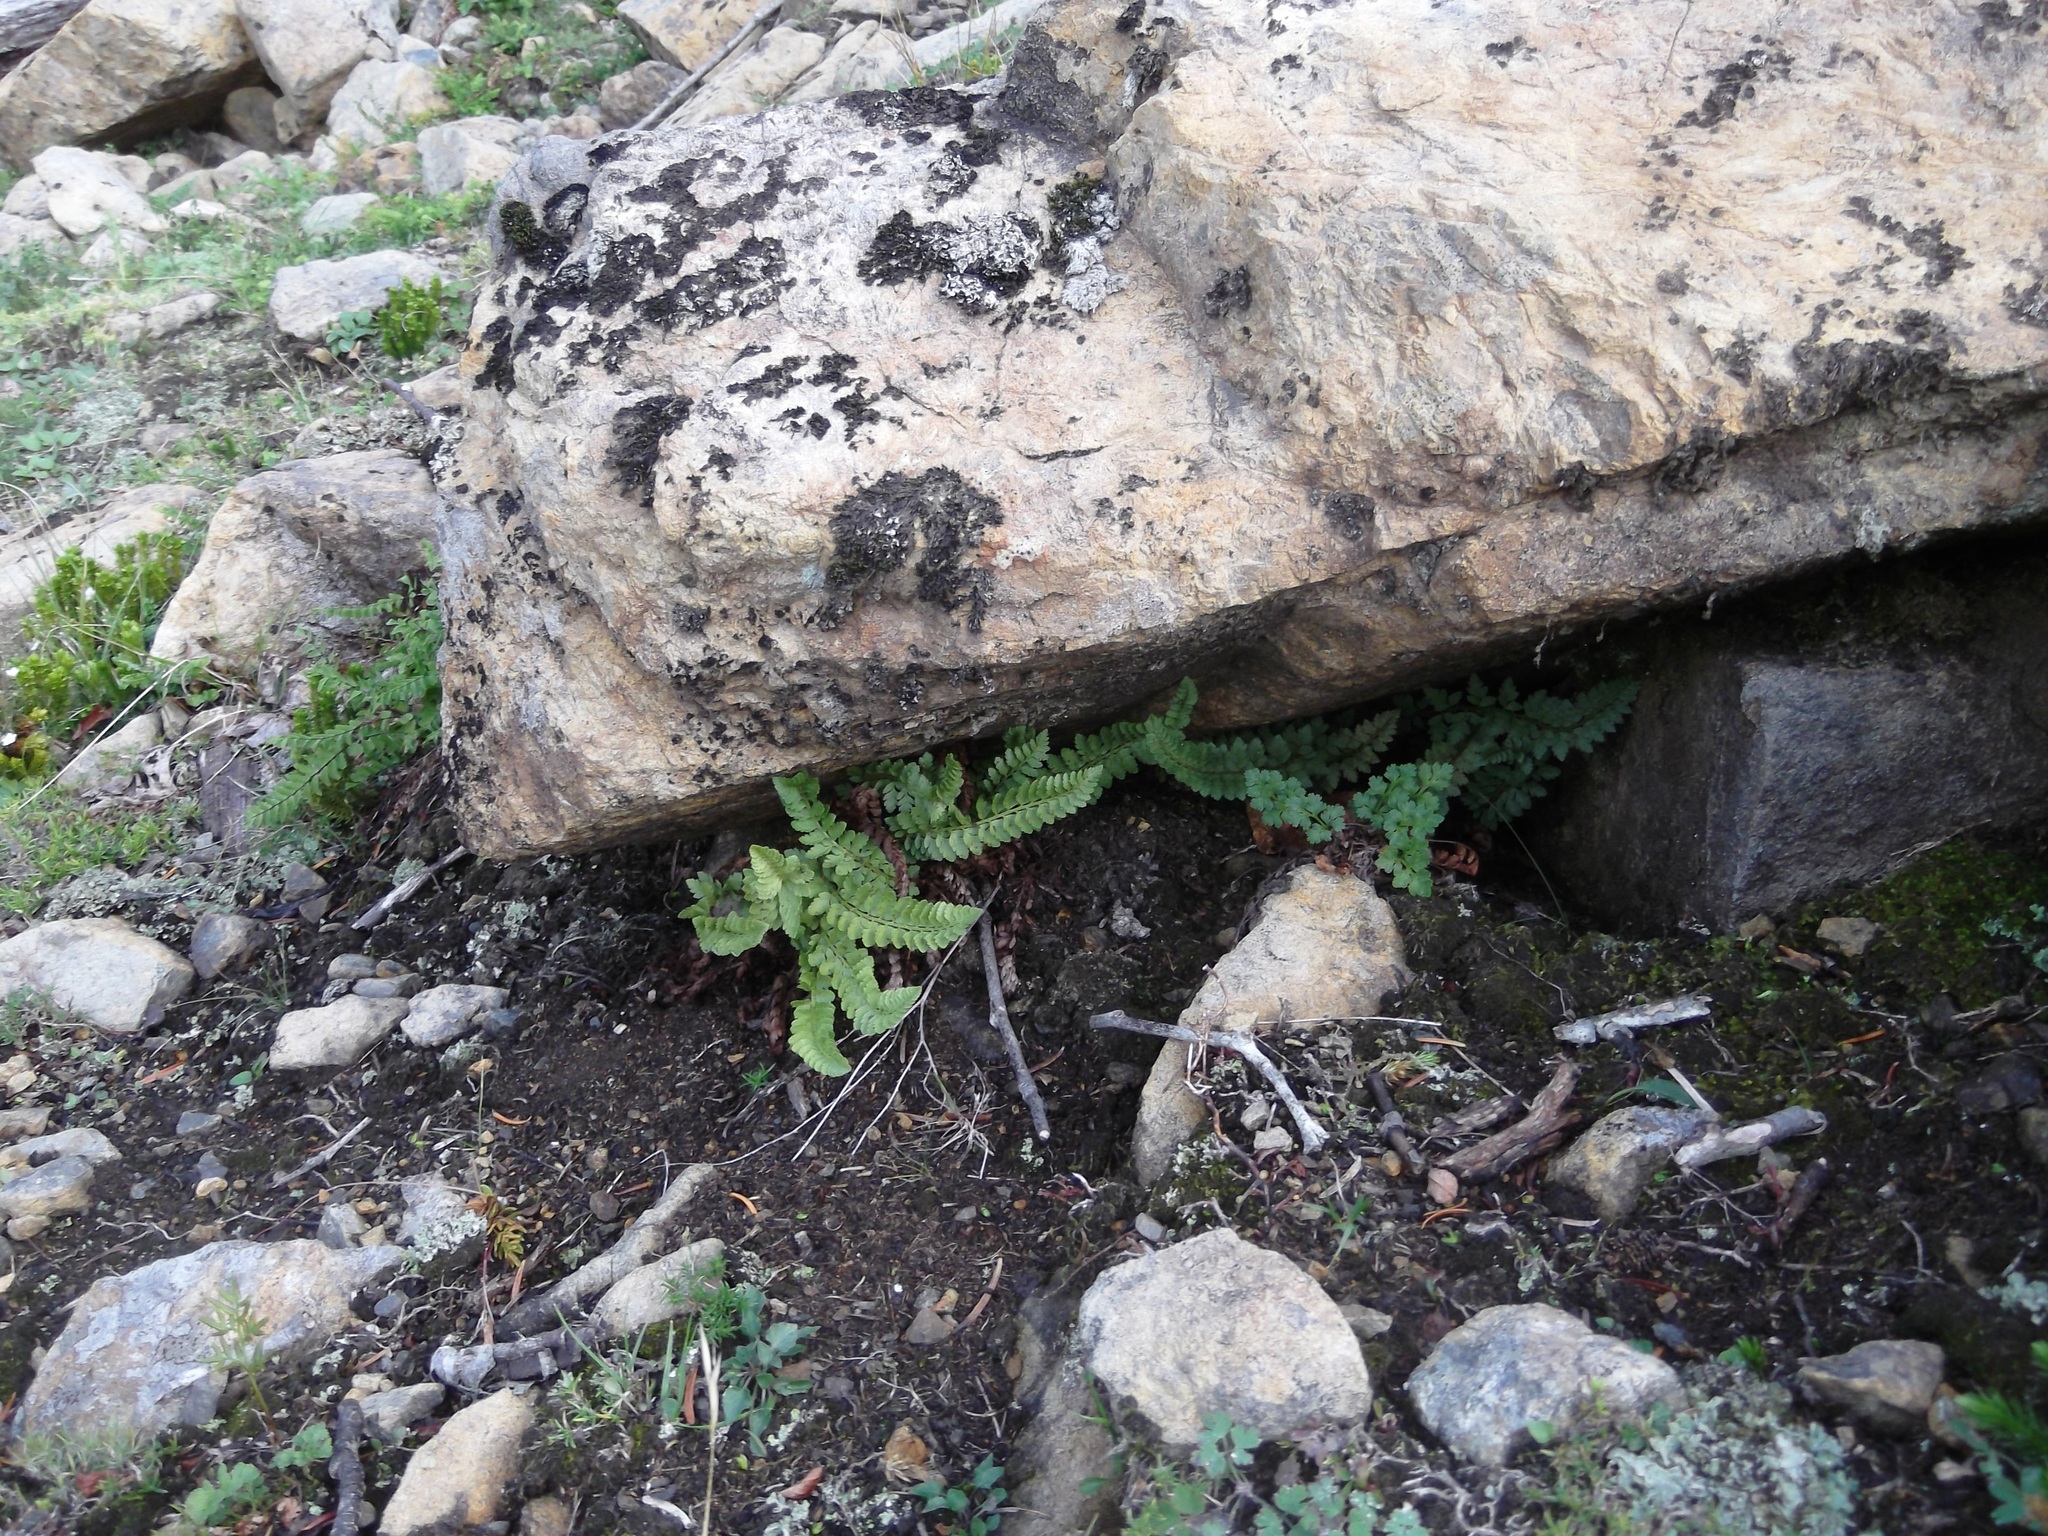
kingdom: Plantae
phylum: Tracheophyta
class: Polypodiopsida
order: Polypodiales
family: Dryopteridaceae
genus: Polystichum
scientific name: Polystichum lemmonii
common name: Lemmon's holly fern
